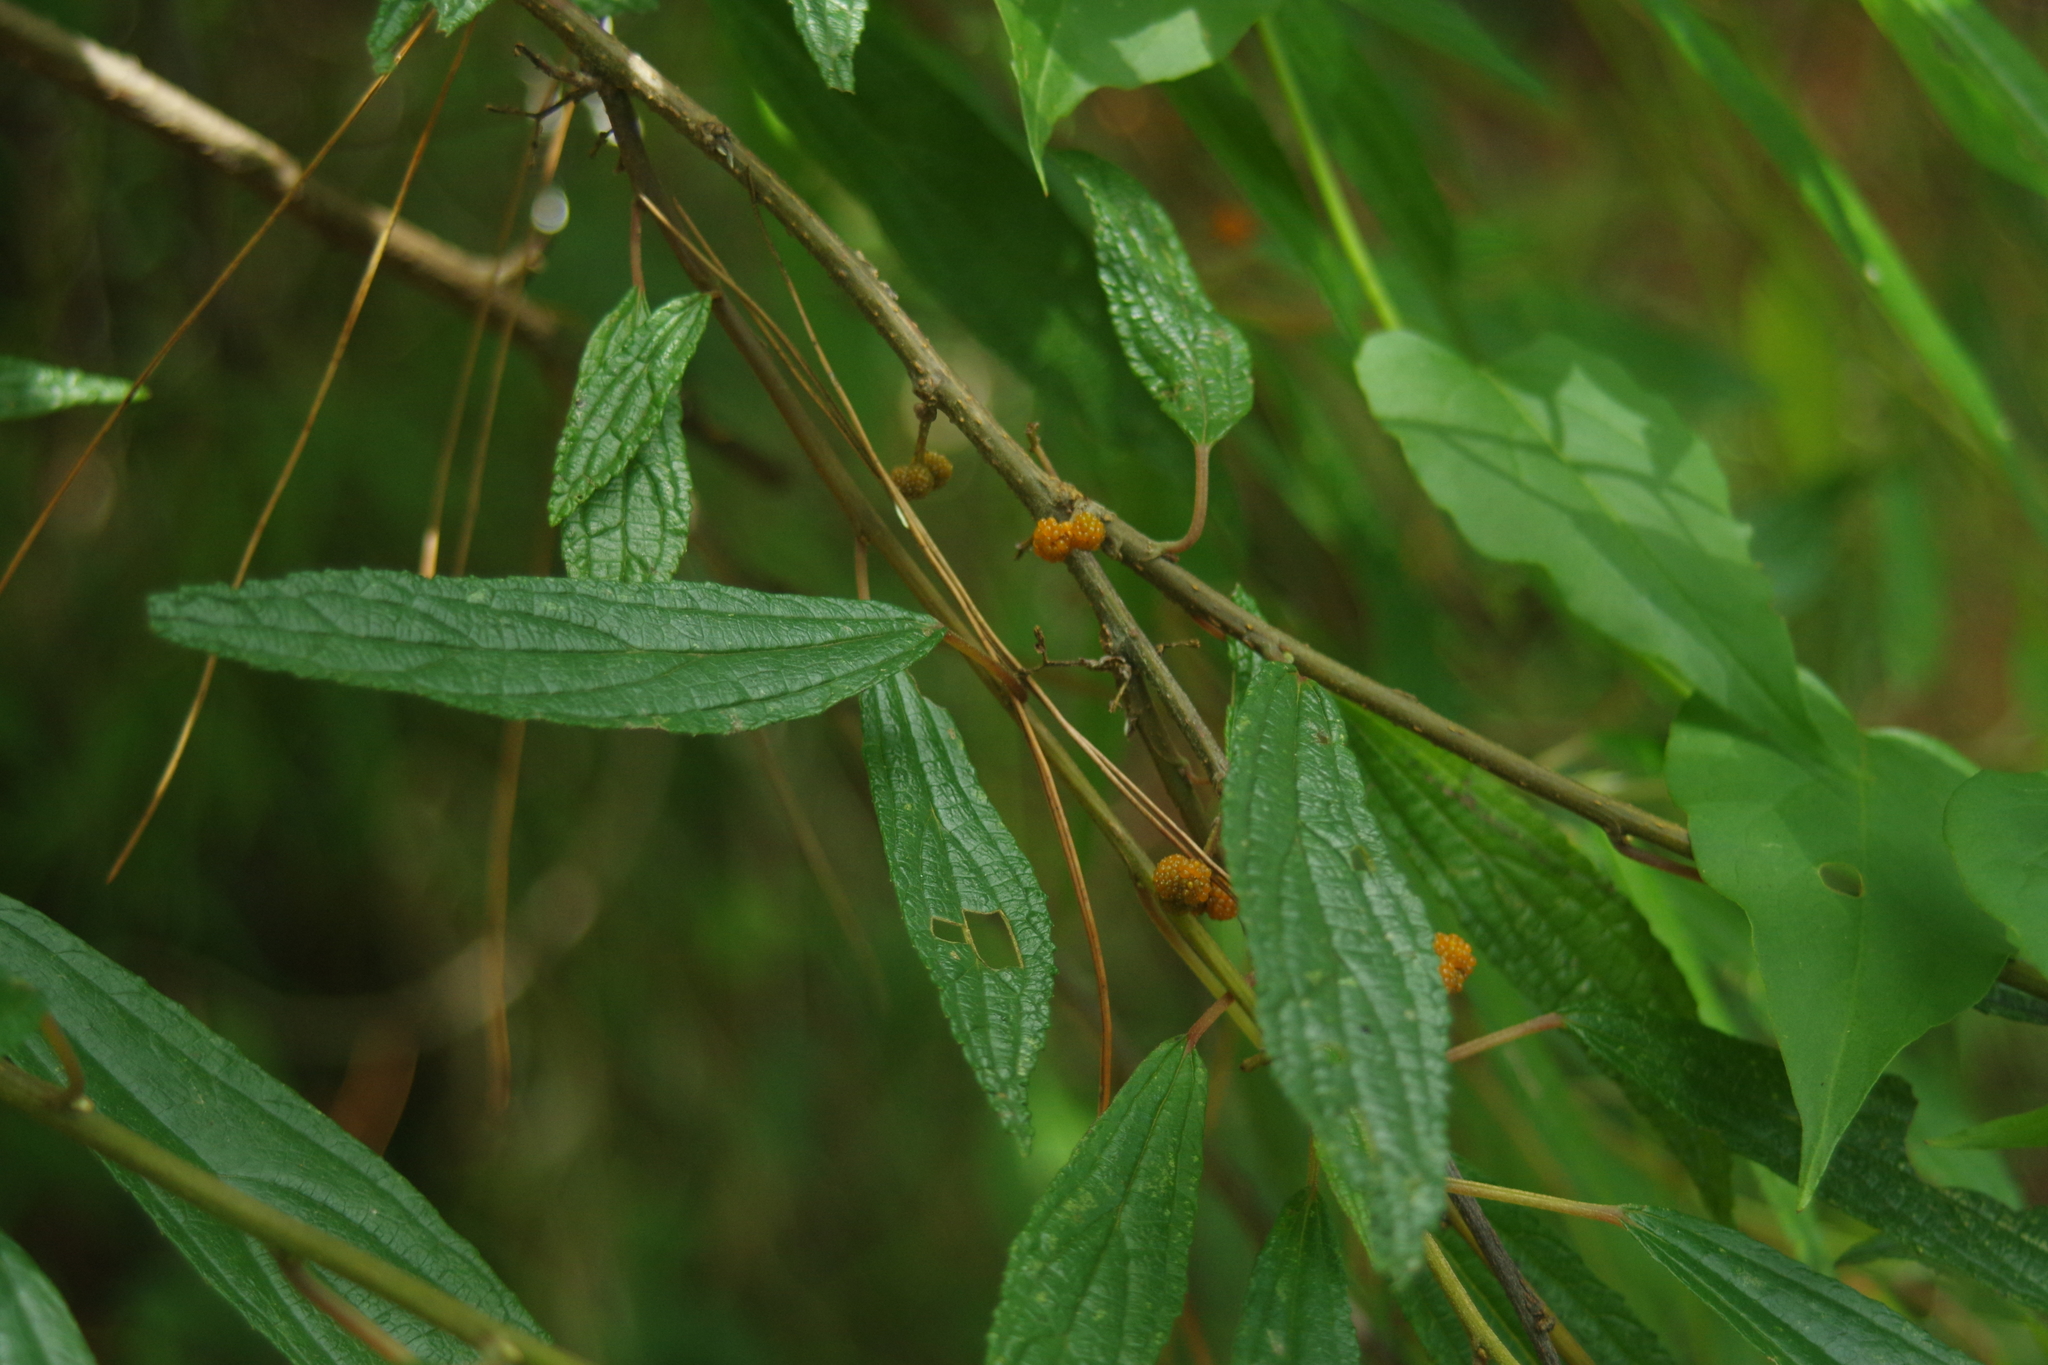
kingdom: Plantae
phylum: Tracheophyta
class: Magnoliopsida
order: Rosales
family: Urticaceae
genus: Debregeasia
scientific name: Debregeasia orientalis
